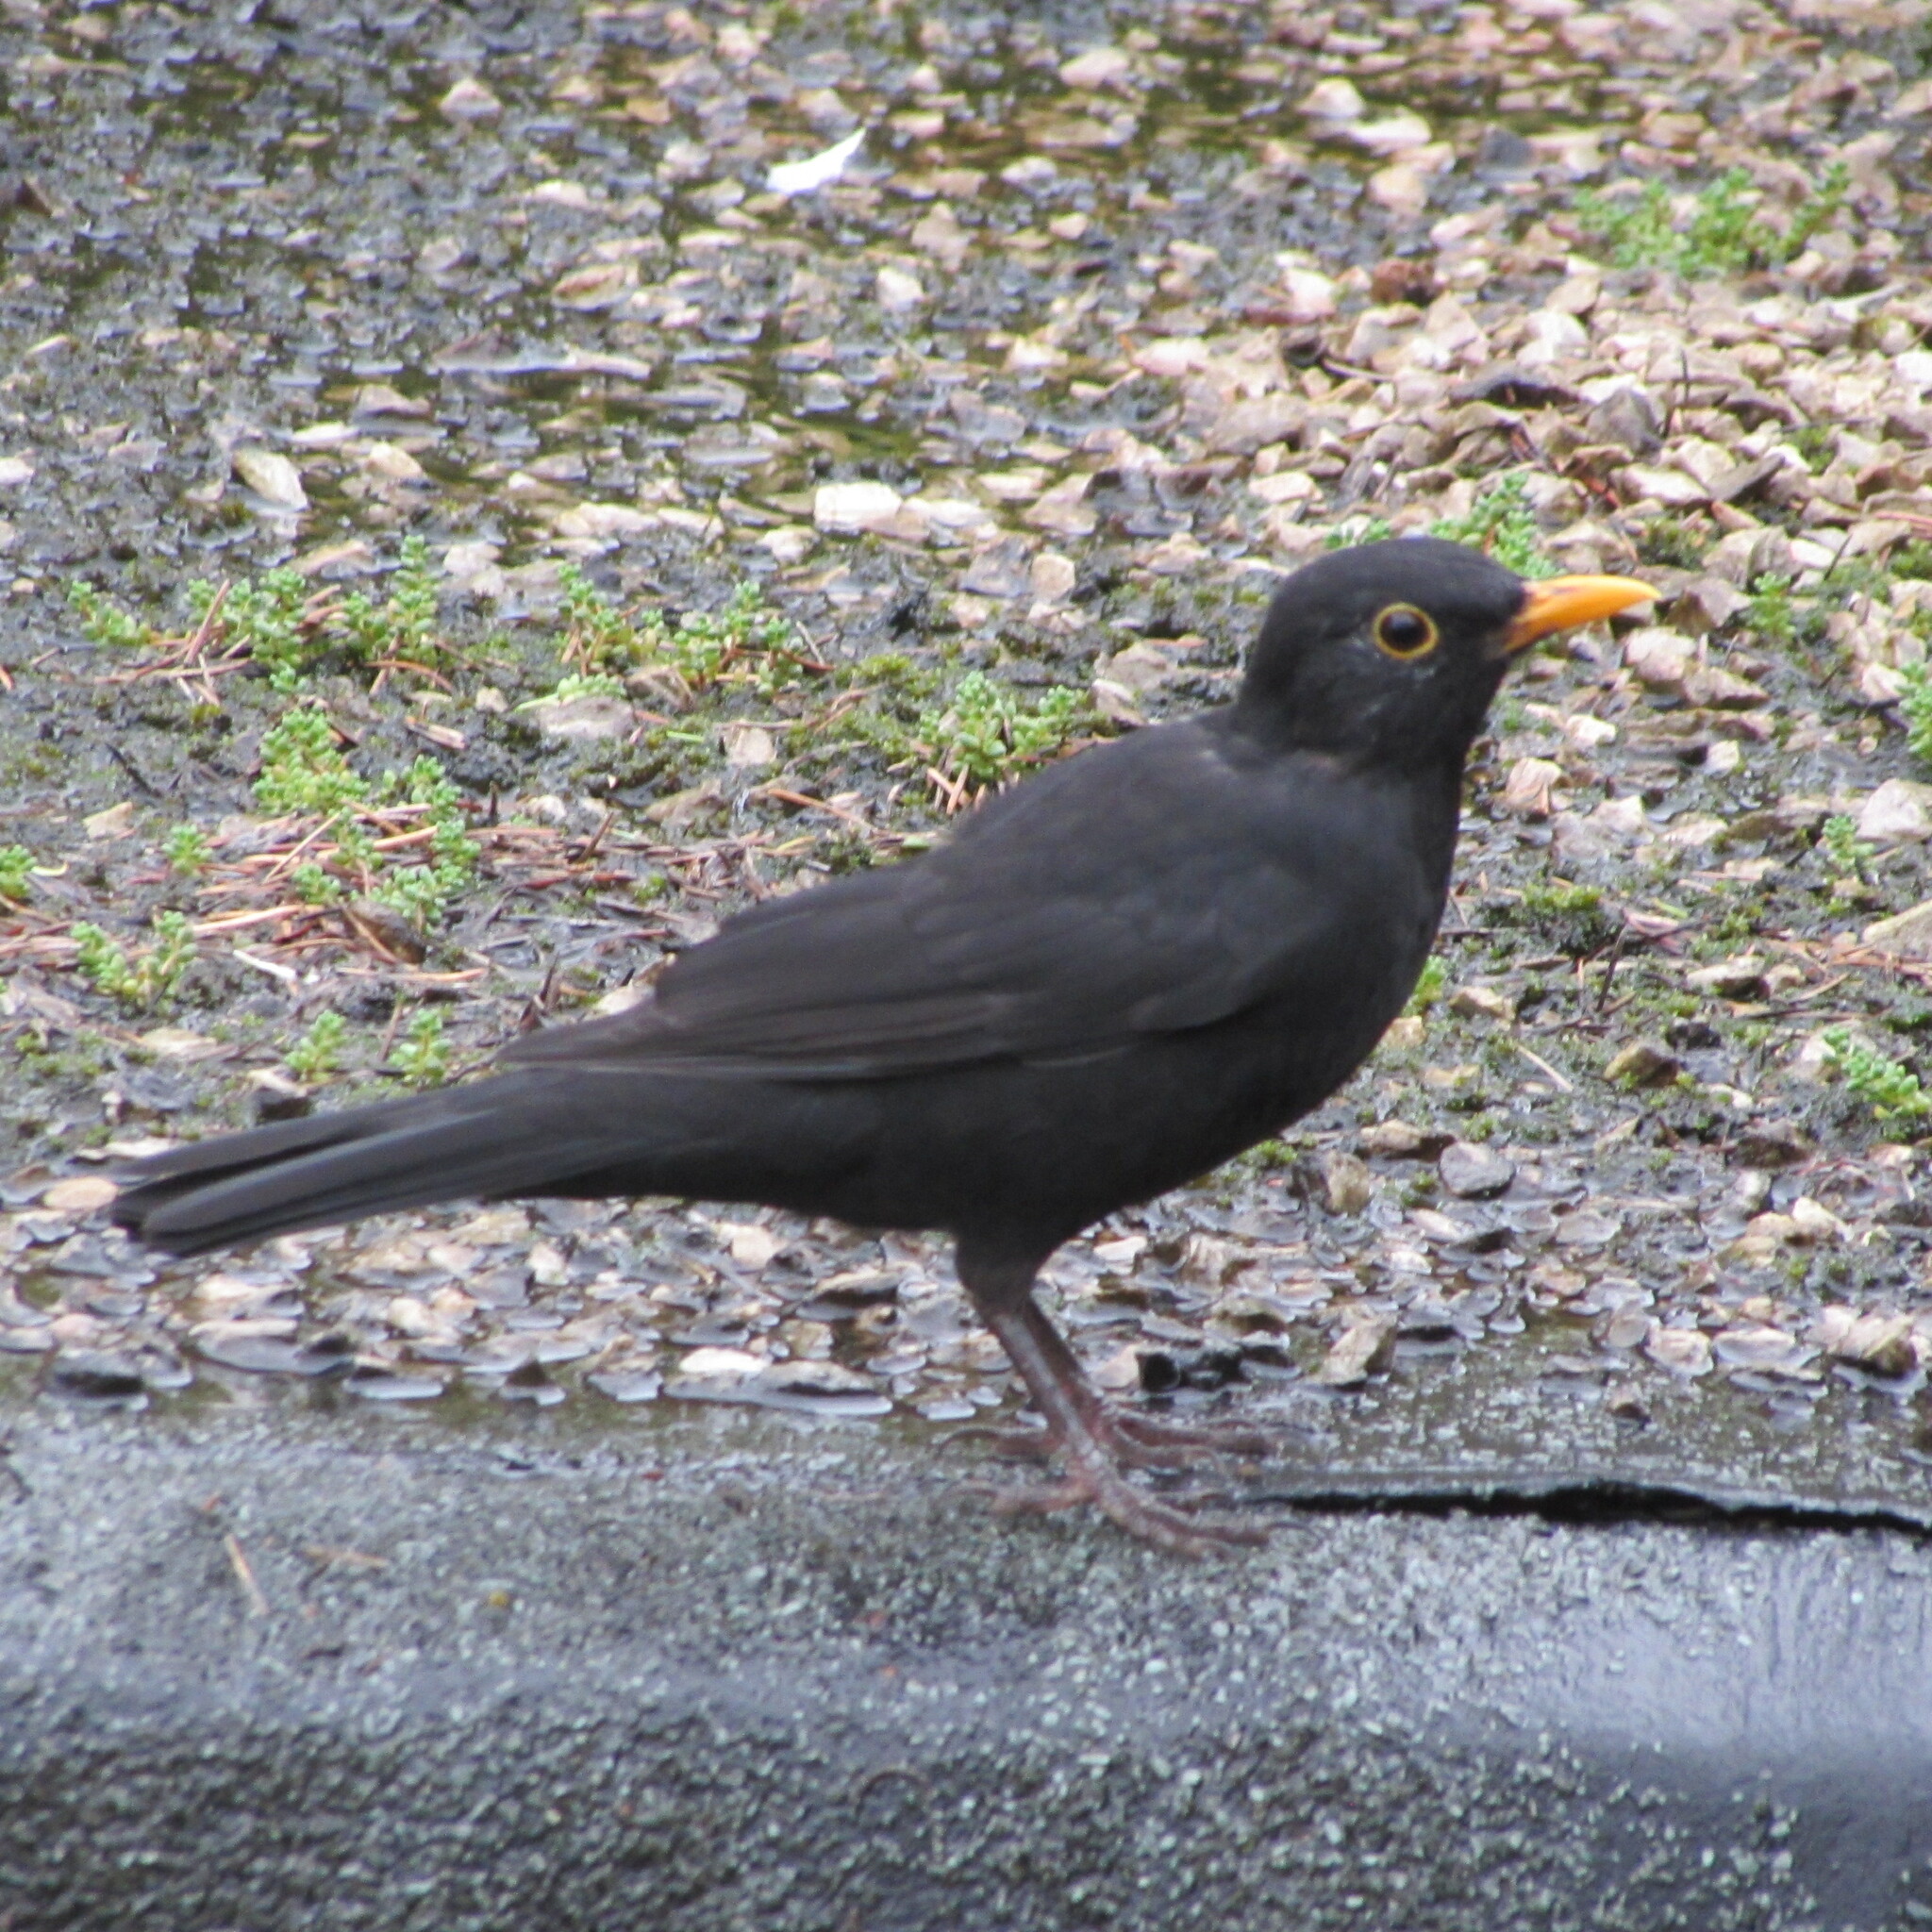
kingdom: Animalia
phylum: Chordata
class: Aves
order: Passeriformes
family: Turdidae
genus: Turdus
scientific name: Turdus merula
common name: Common blackbird
